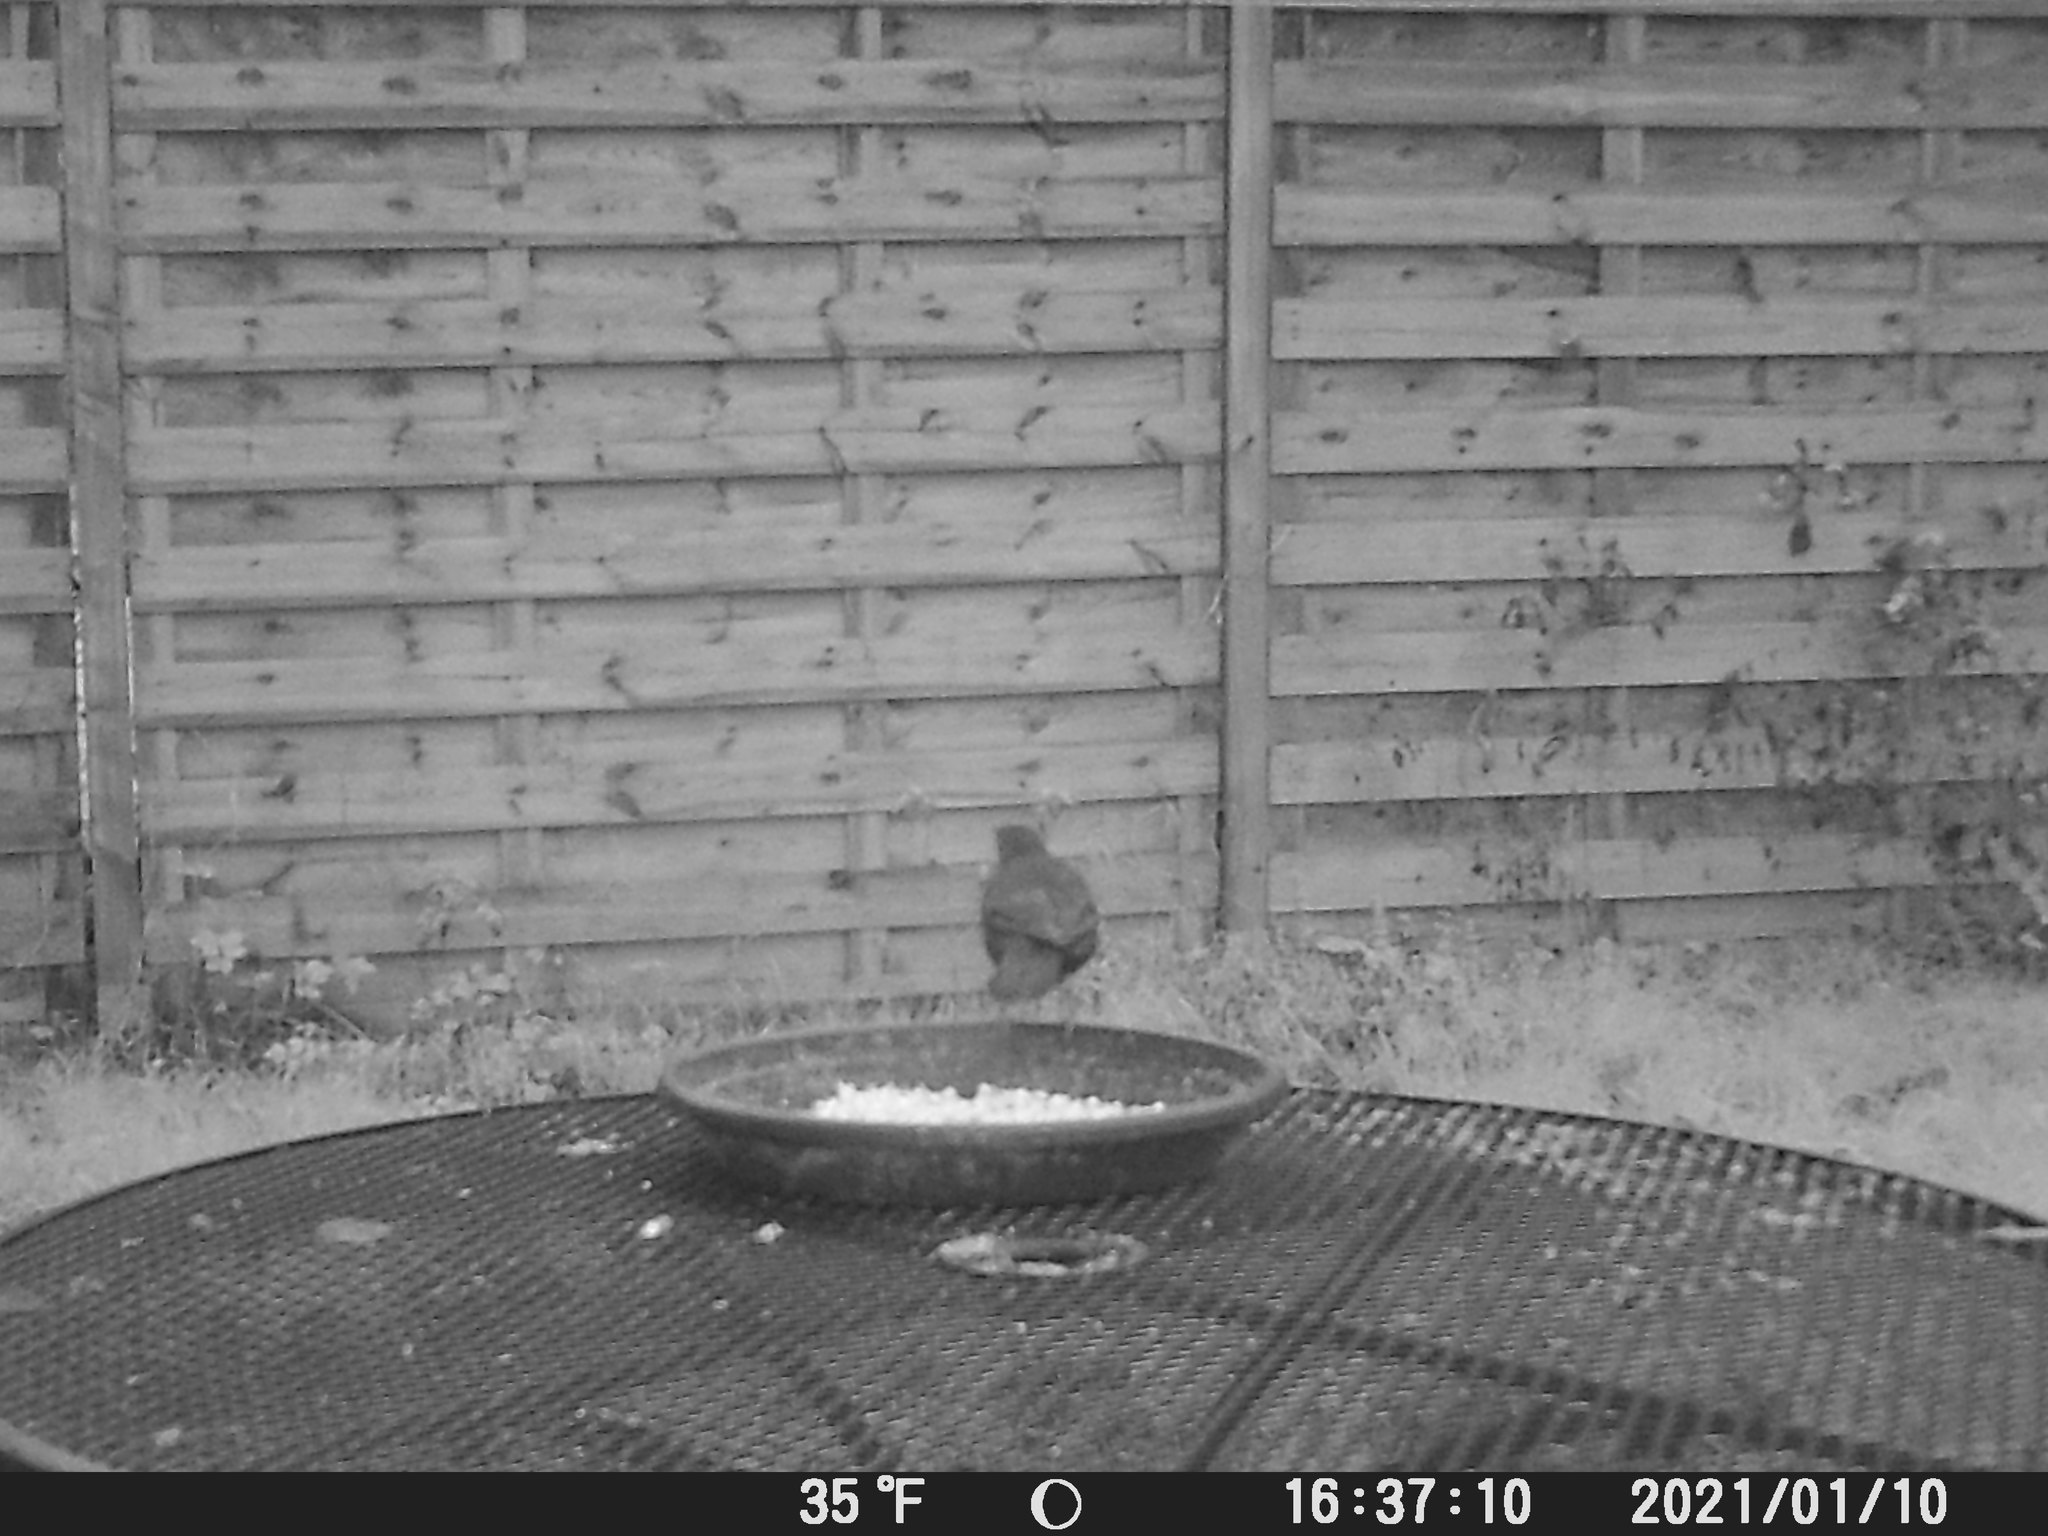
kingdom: Animalia
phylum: Chordata
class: Aves
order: Passeriformes
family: Turdidae
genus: Turdus
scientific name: Turdus merula
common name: Common blackbird
